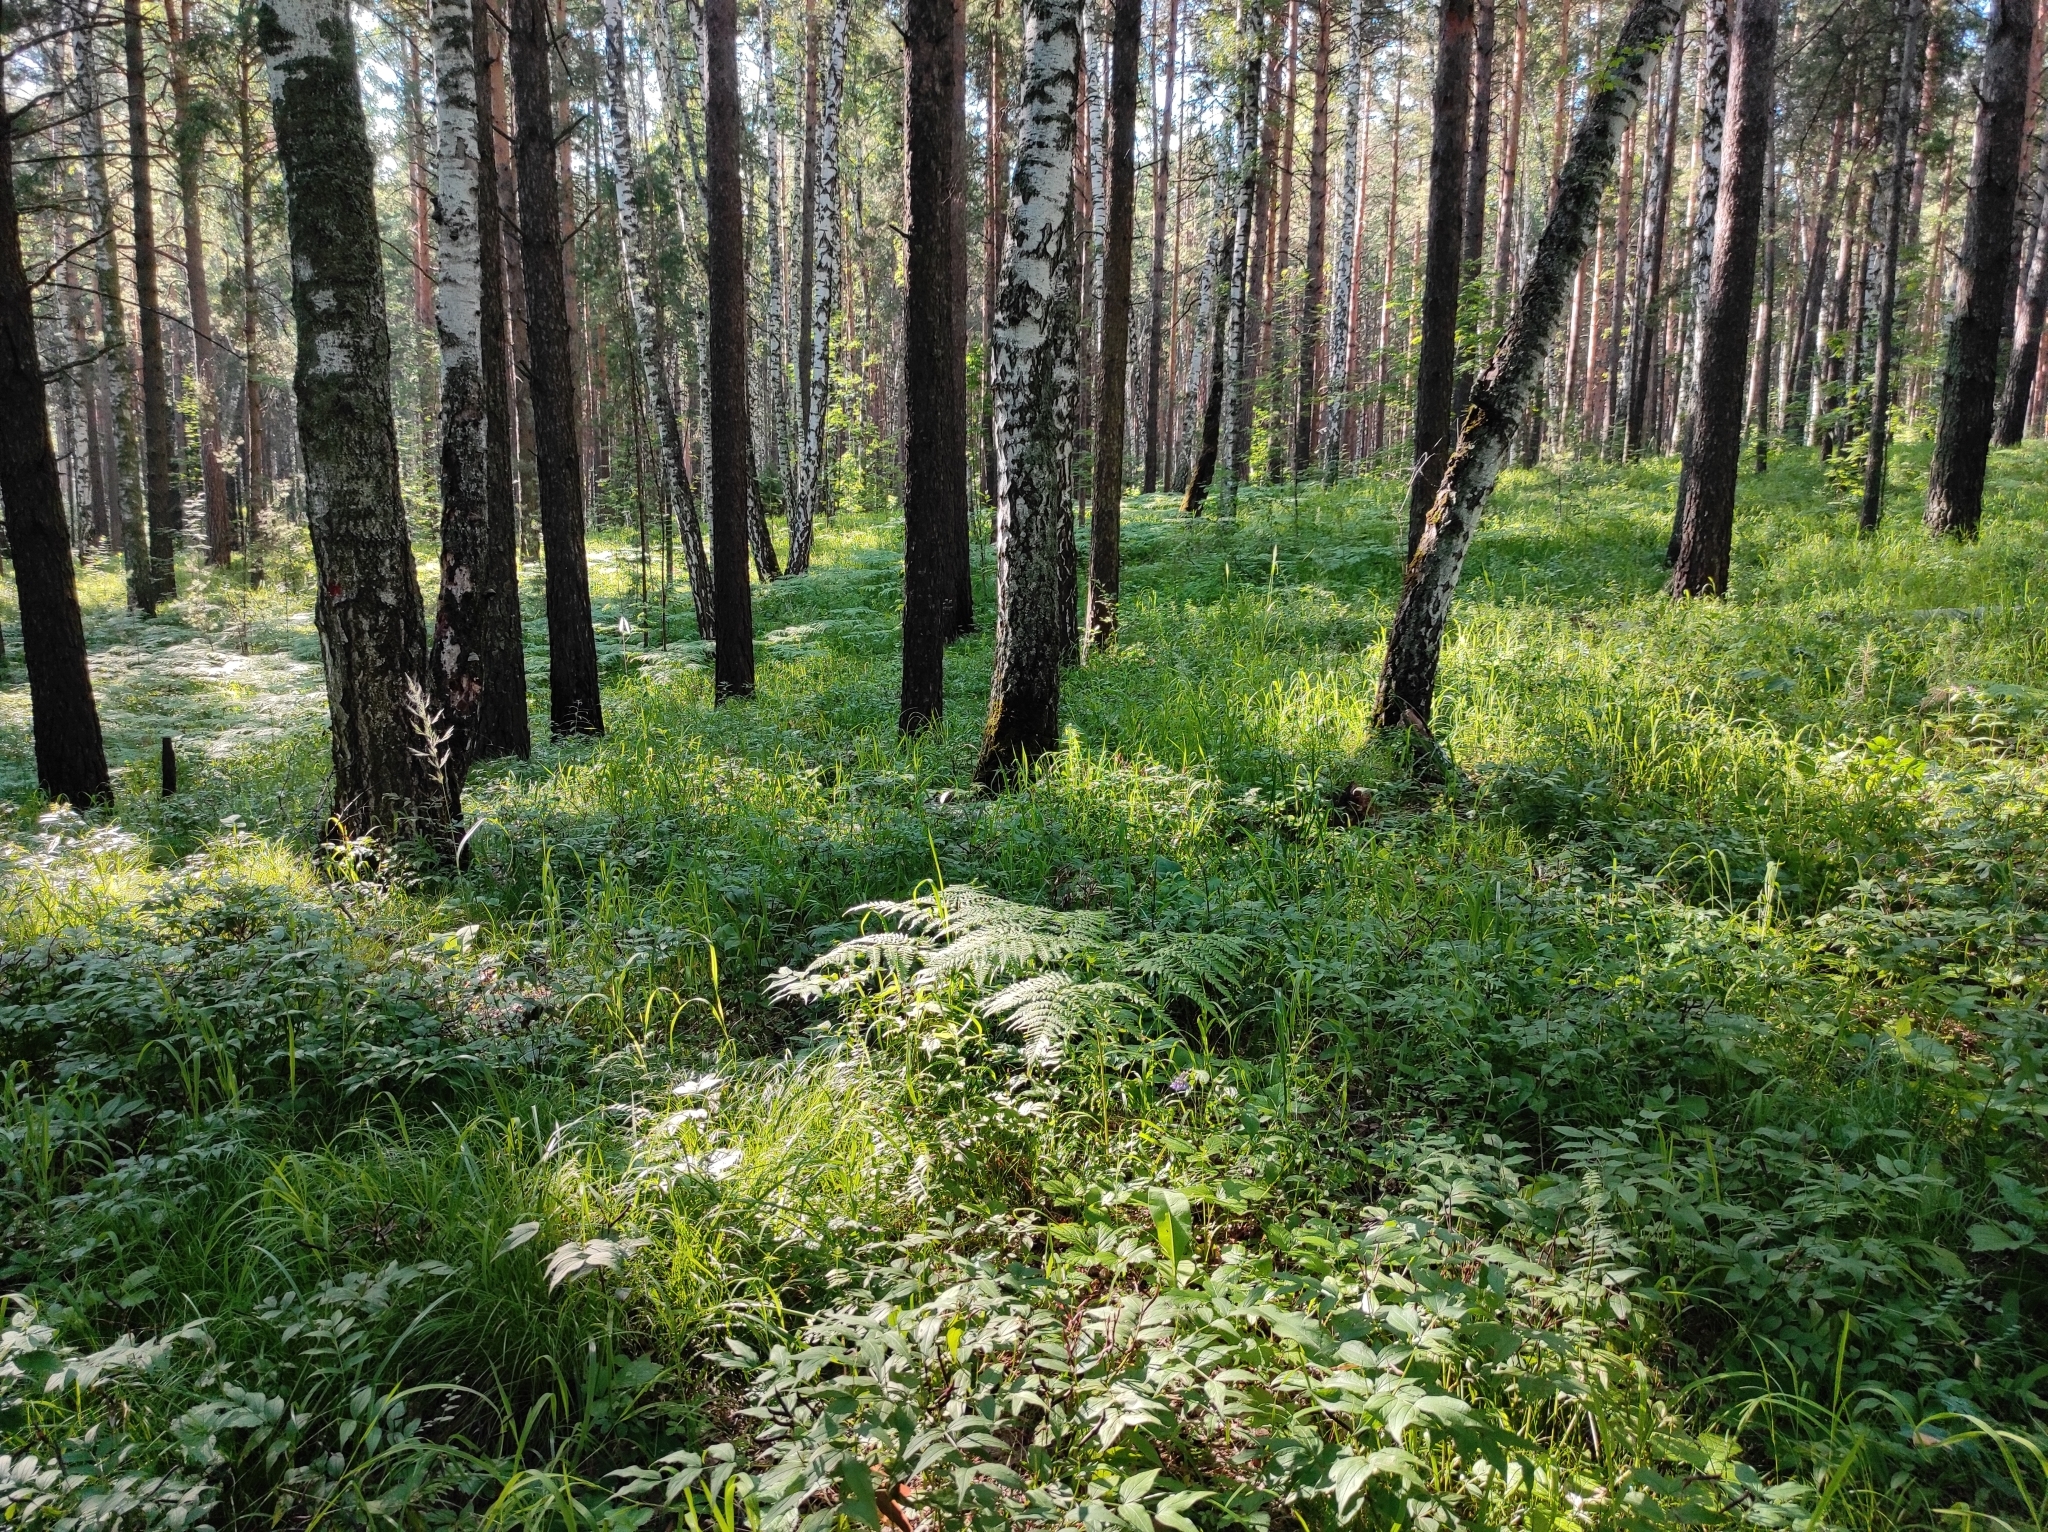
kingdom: Plantae
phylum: Tracheophyta
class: Magnoliopsida
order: Fagales
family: Betulaceae
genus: Betula
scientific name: Betula pendula
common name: Silver birch
